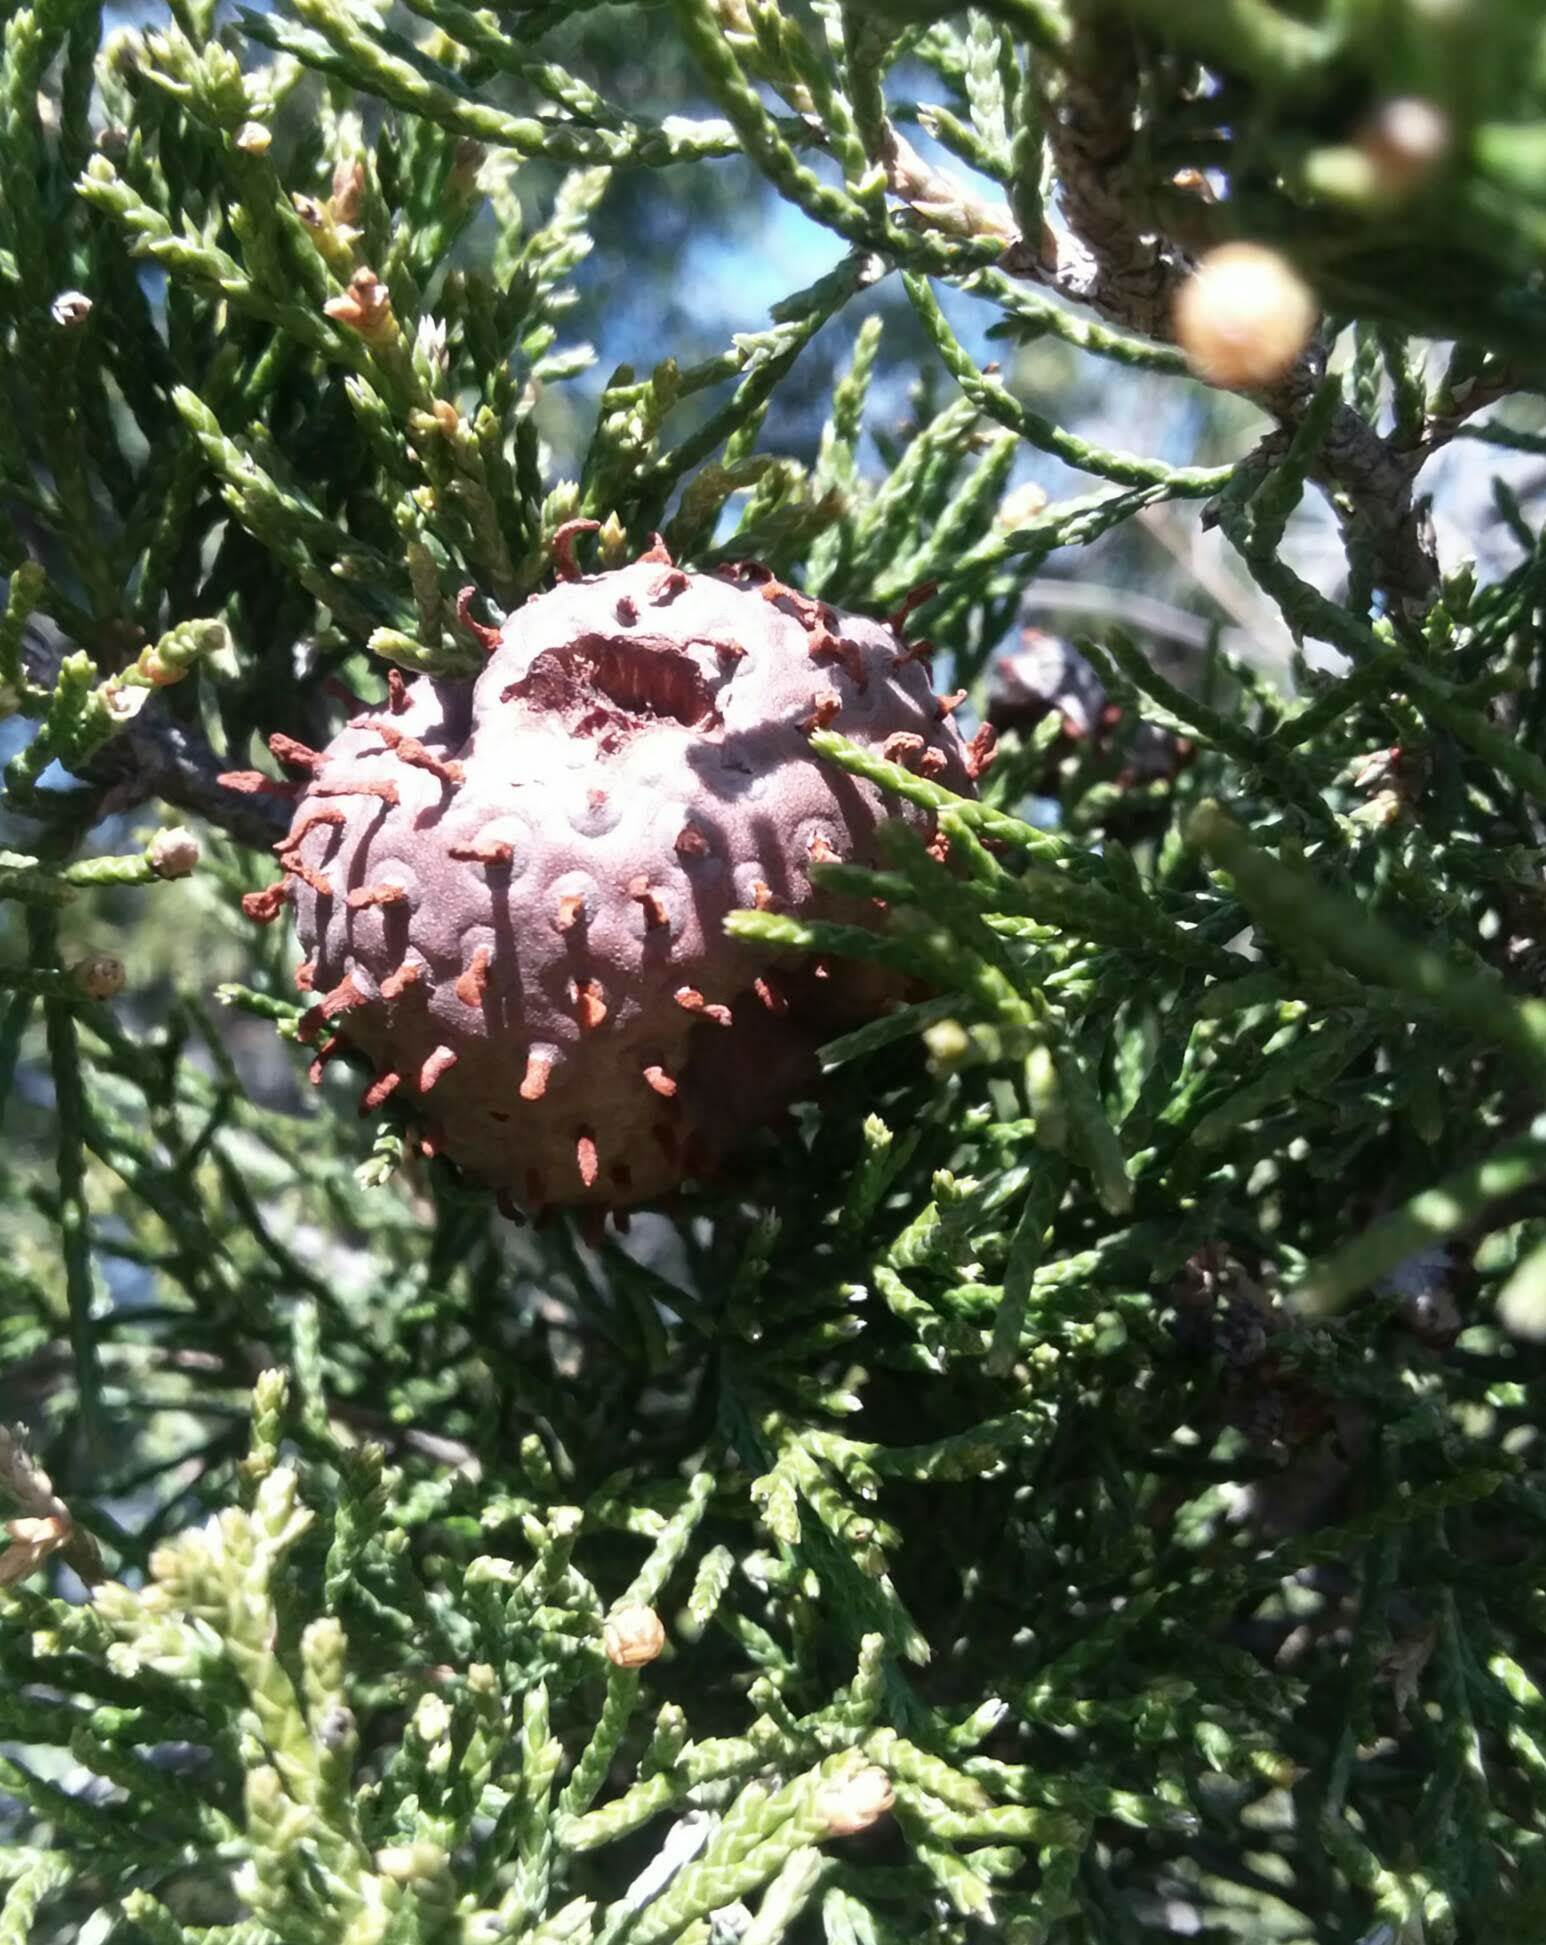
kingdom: Fungi
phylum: Basidiomycota
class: Pucciniomycetes
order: Pucciniales
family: Gymnosporangiaceae
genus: Gymnosporangium
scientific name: Gymnosporangium juniperi-virginianae
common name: Juniper-apple rust
